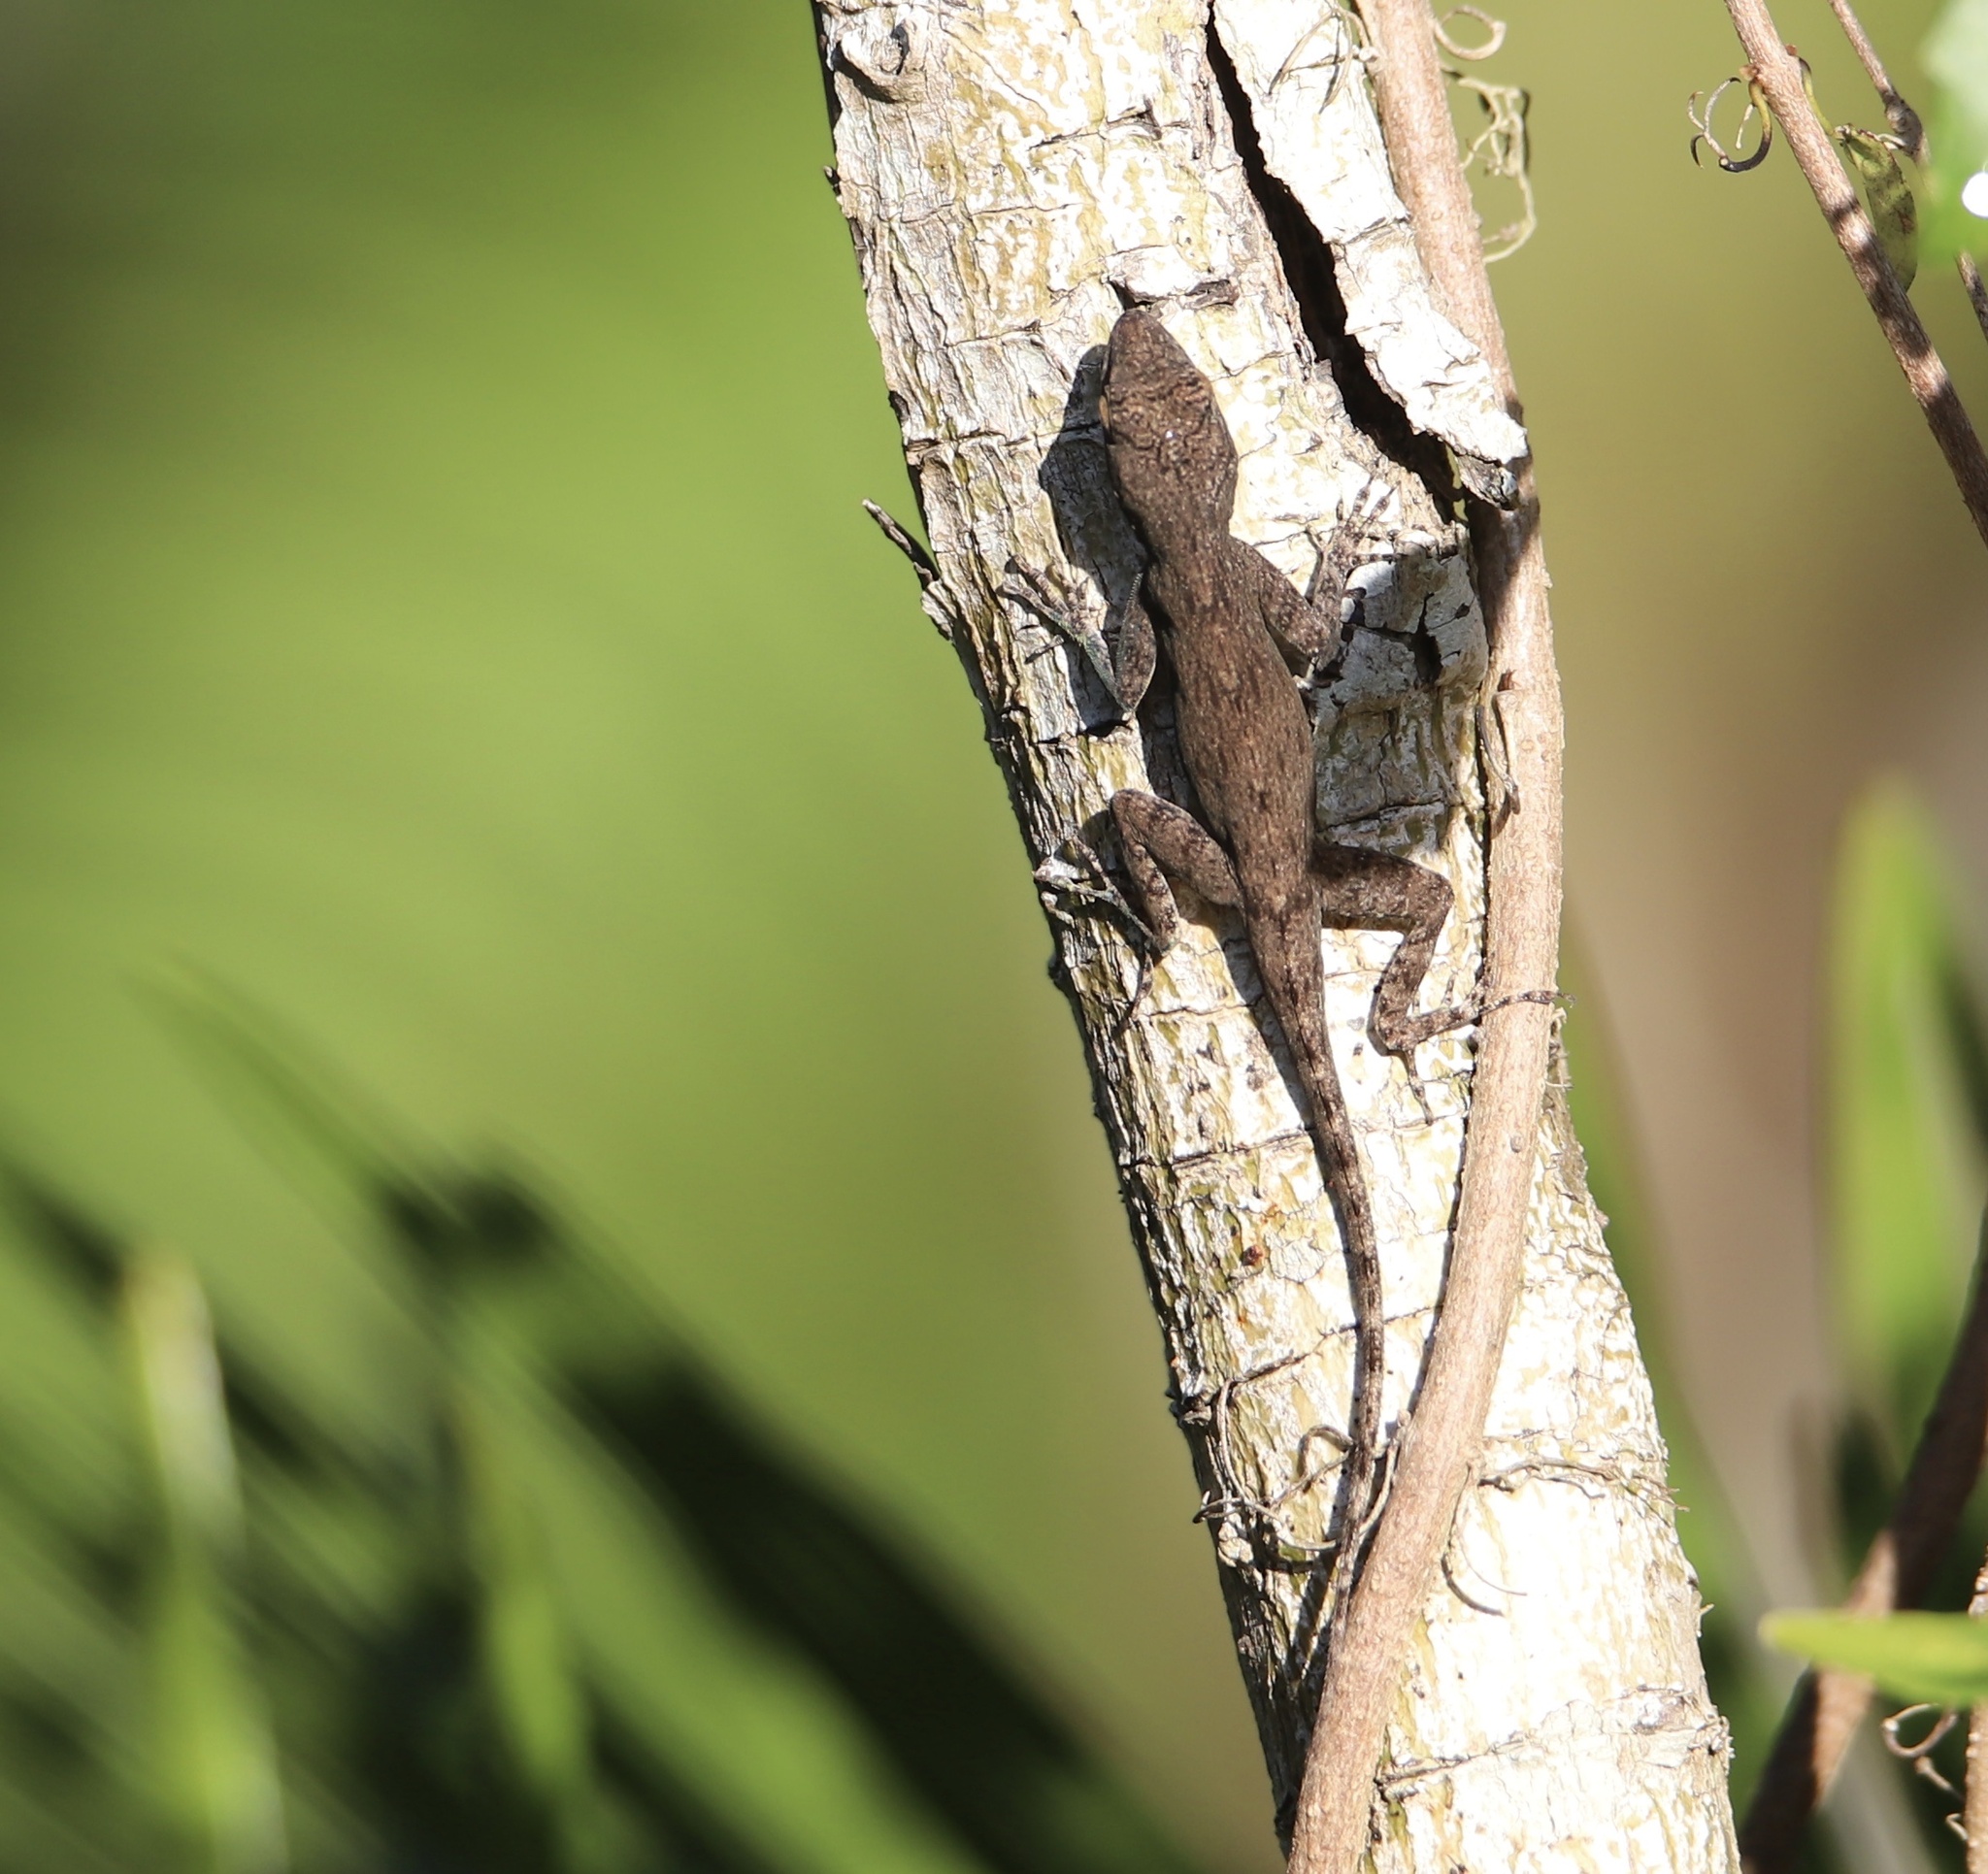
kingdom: Animalia
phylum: Chordata
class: Squamata
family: Dactyloidae
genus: Anolis
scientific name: Anolis distichus
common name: Bark anole
